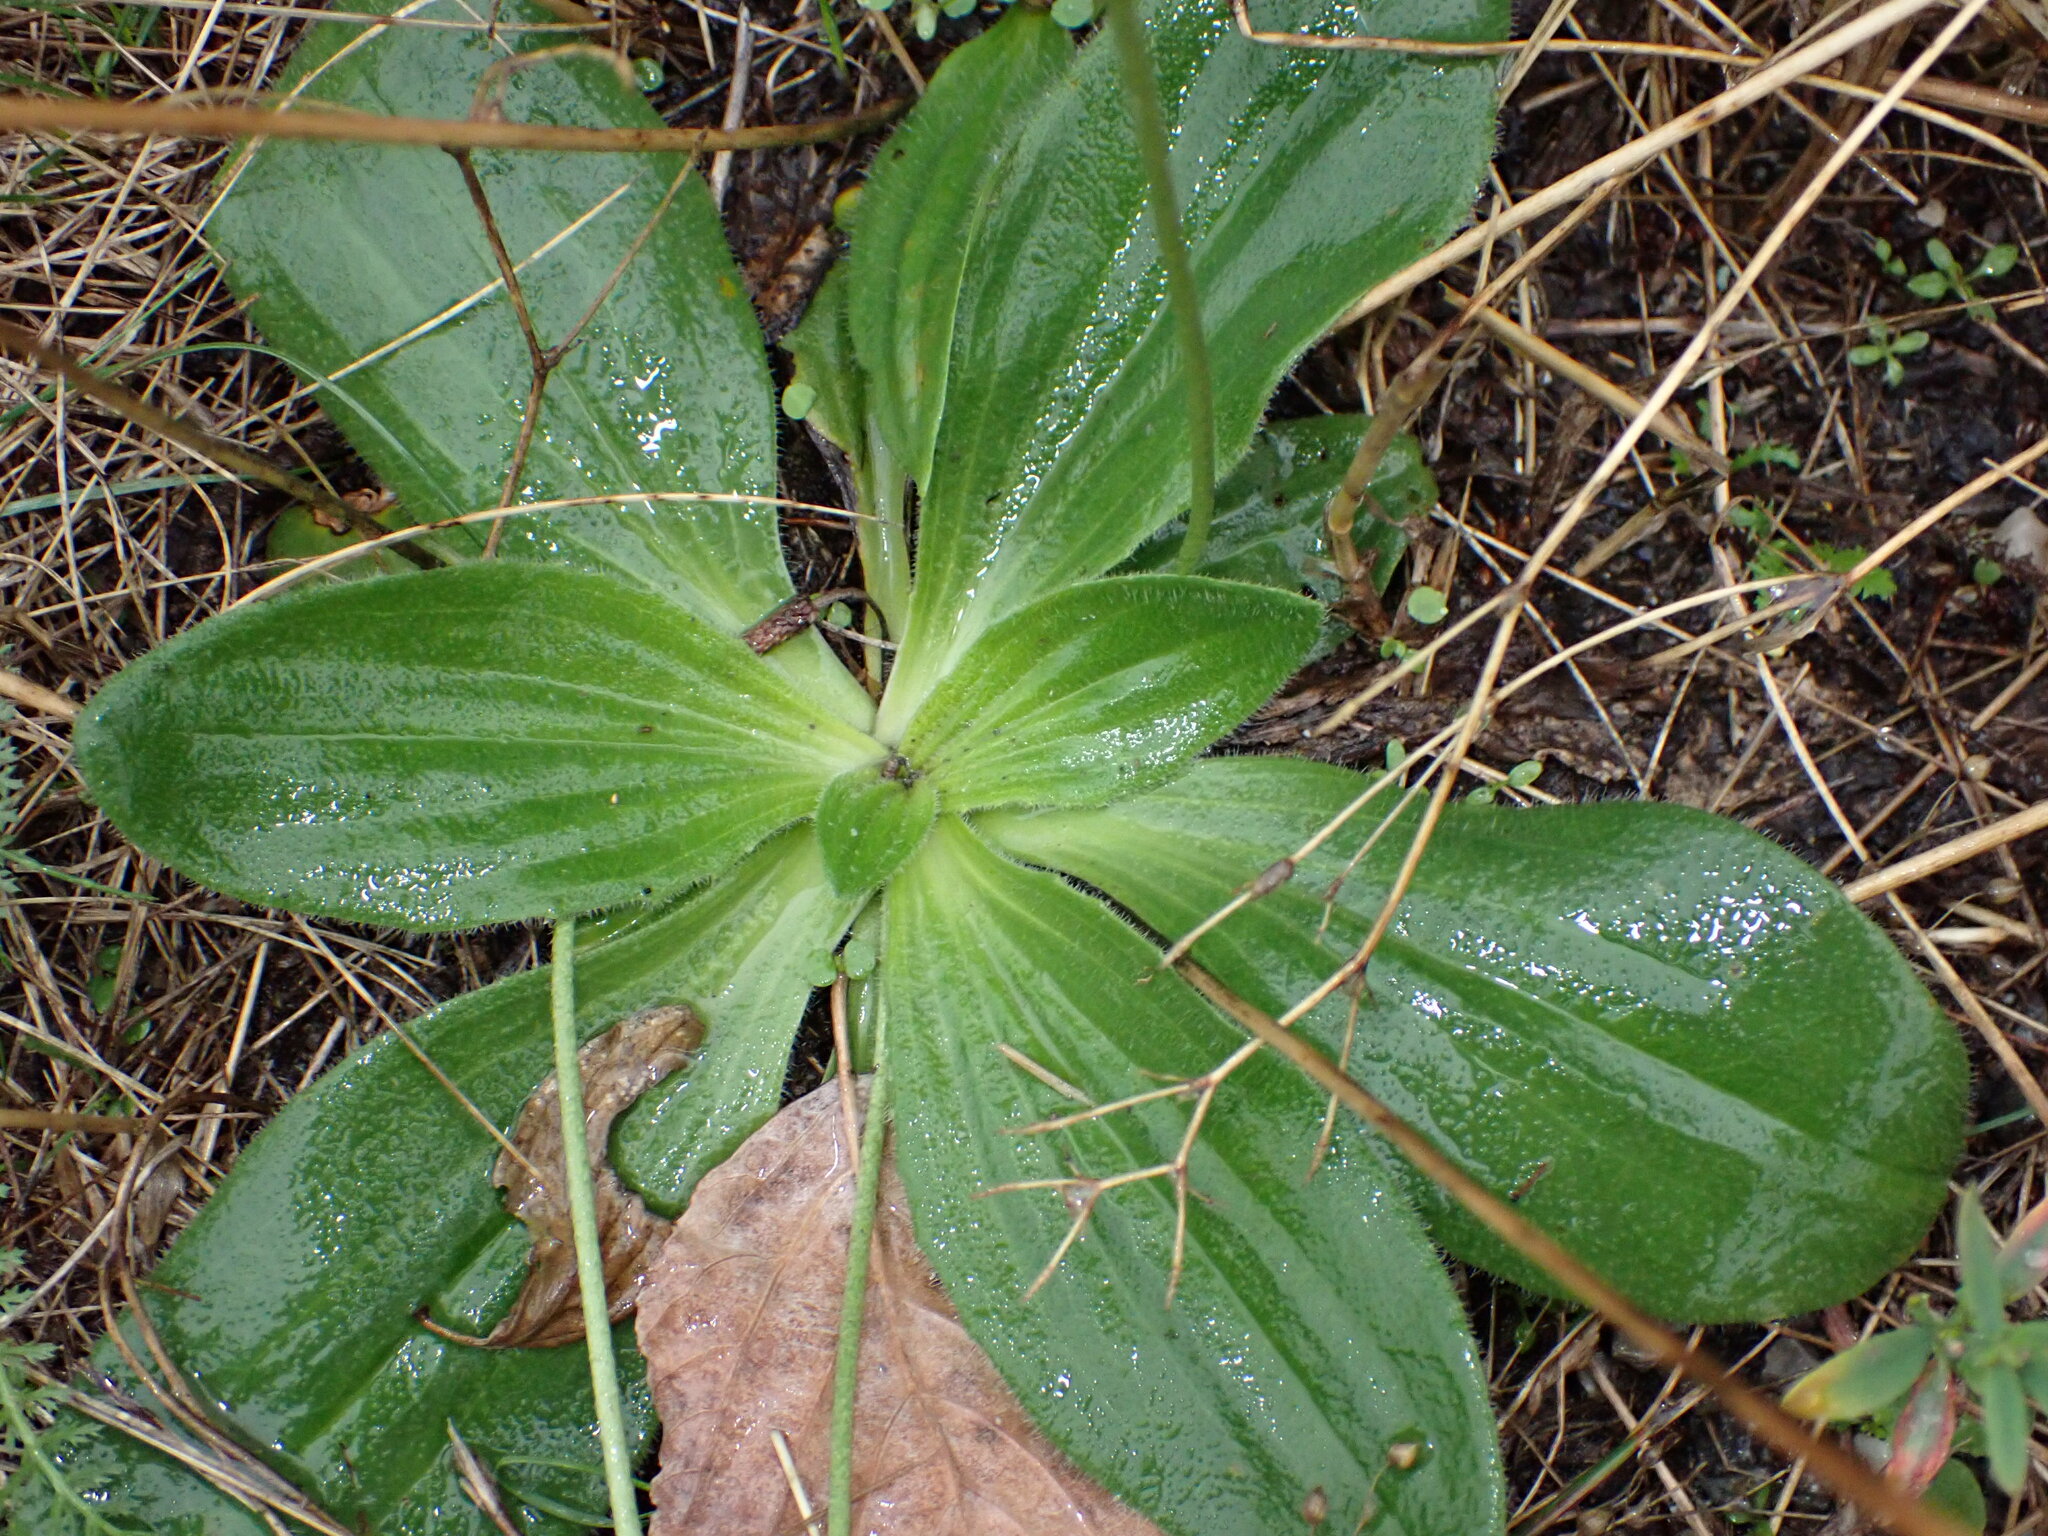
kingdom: Plantae
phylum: Tracheophyta
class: Magnoliopsida
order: Lamiales
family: Plantaginaceae
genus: Plantago
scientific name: Plantago media
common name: Hoary plantain
